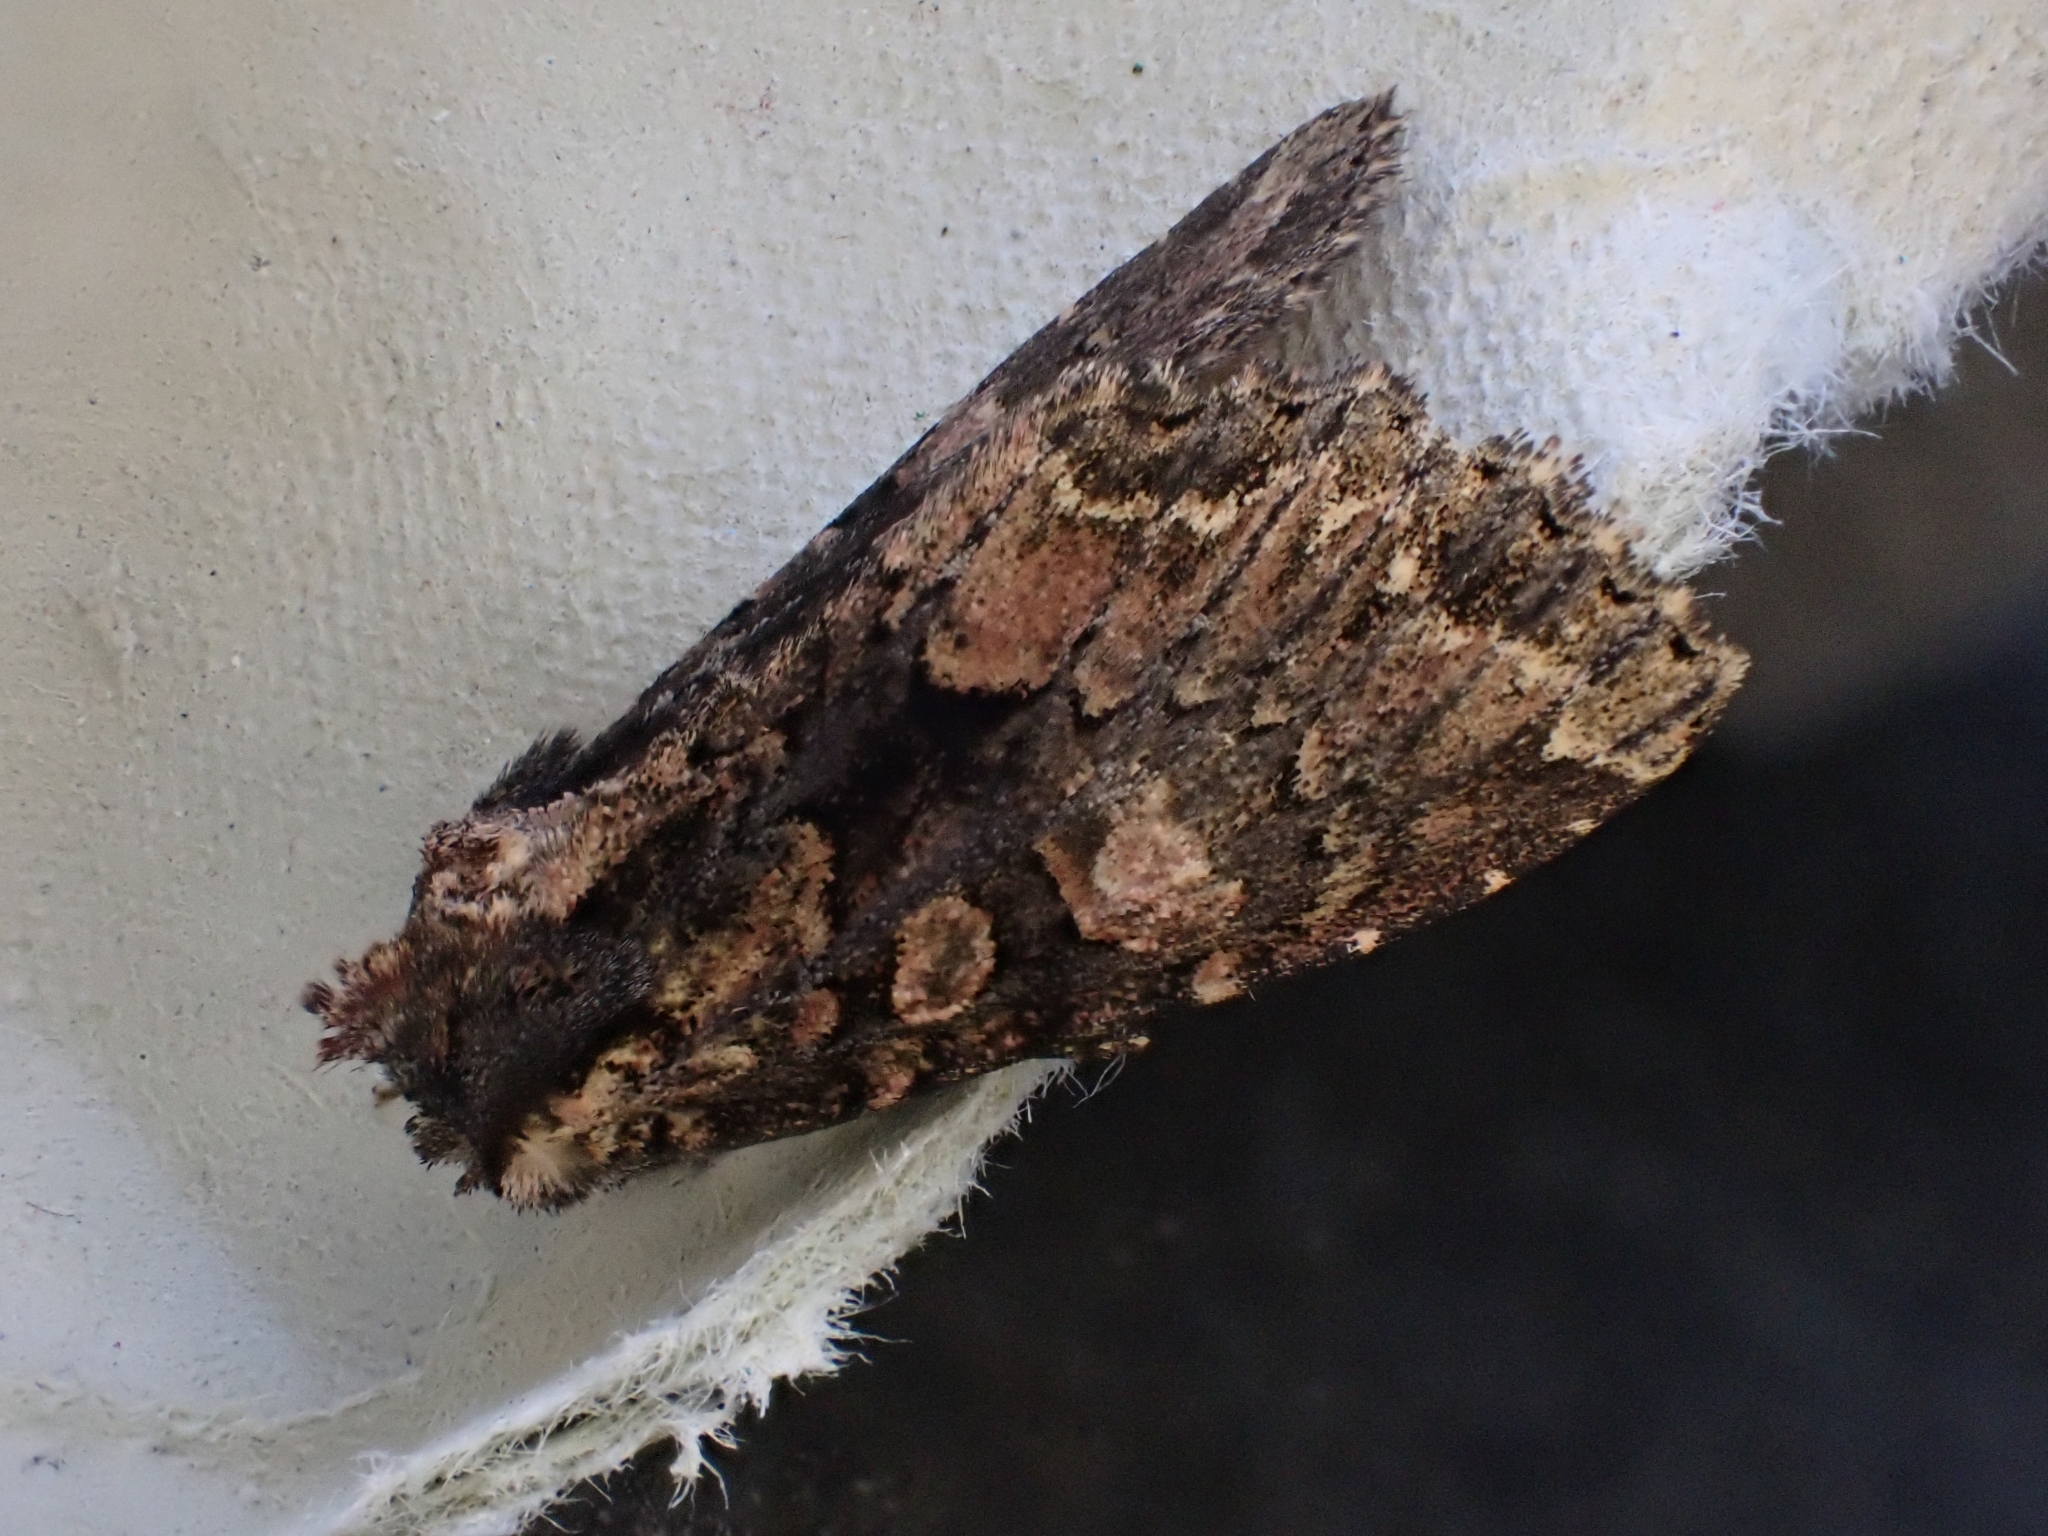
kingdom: Animalia
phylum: Arthropoda
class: Insecta
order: Lepidoptera
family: Noctuidae
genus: Mniotype
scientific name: Mniotype satura
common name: Beautiful arches
